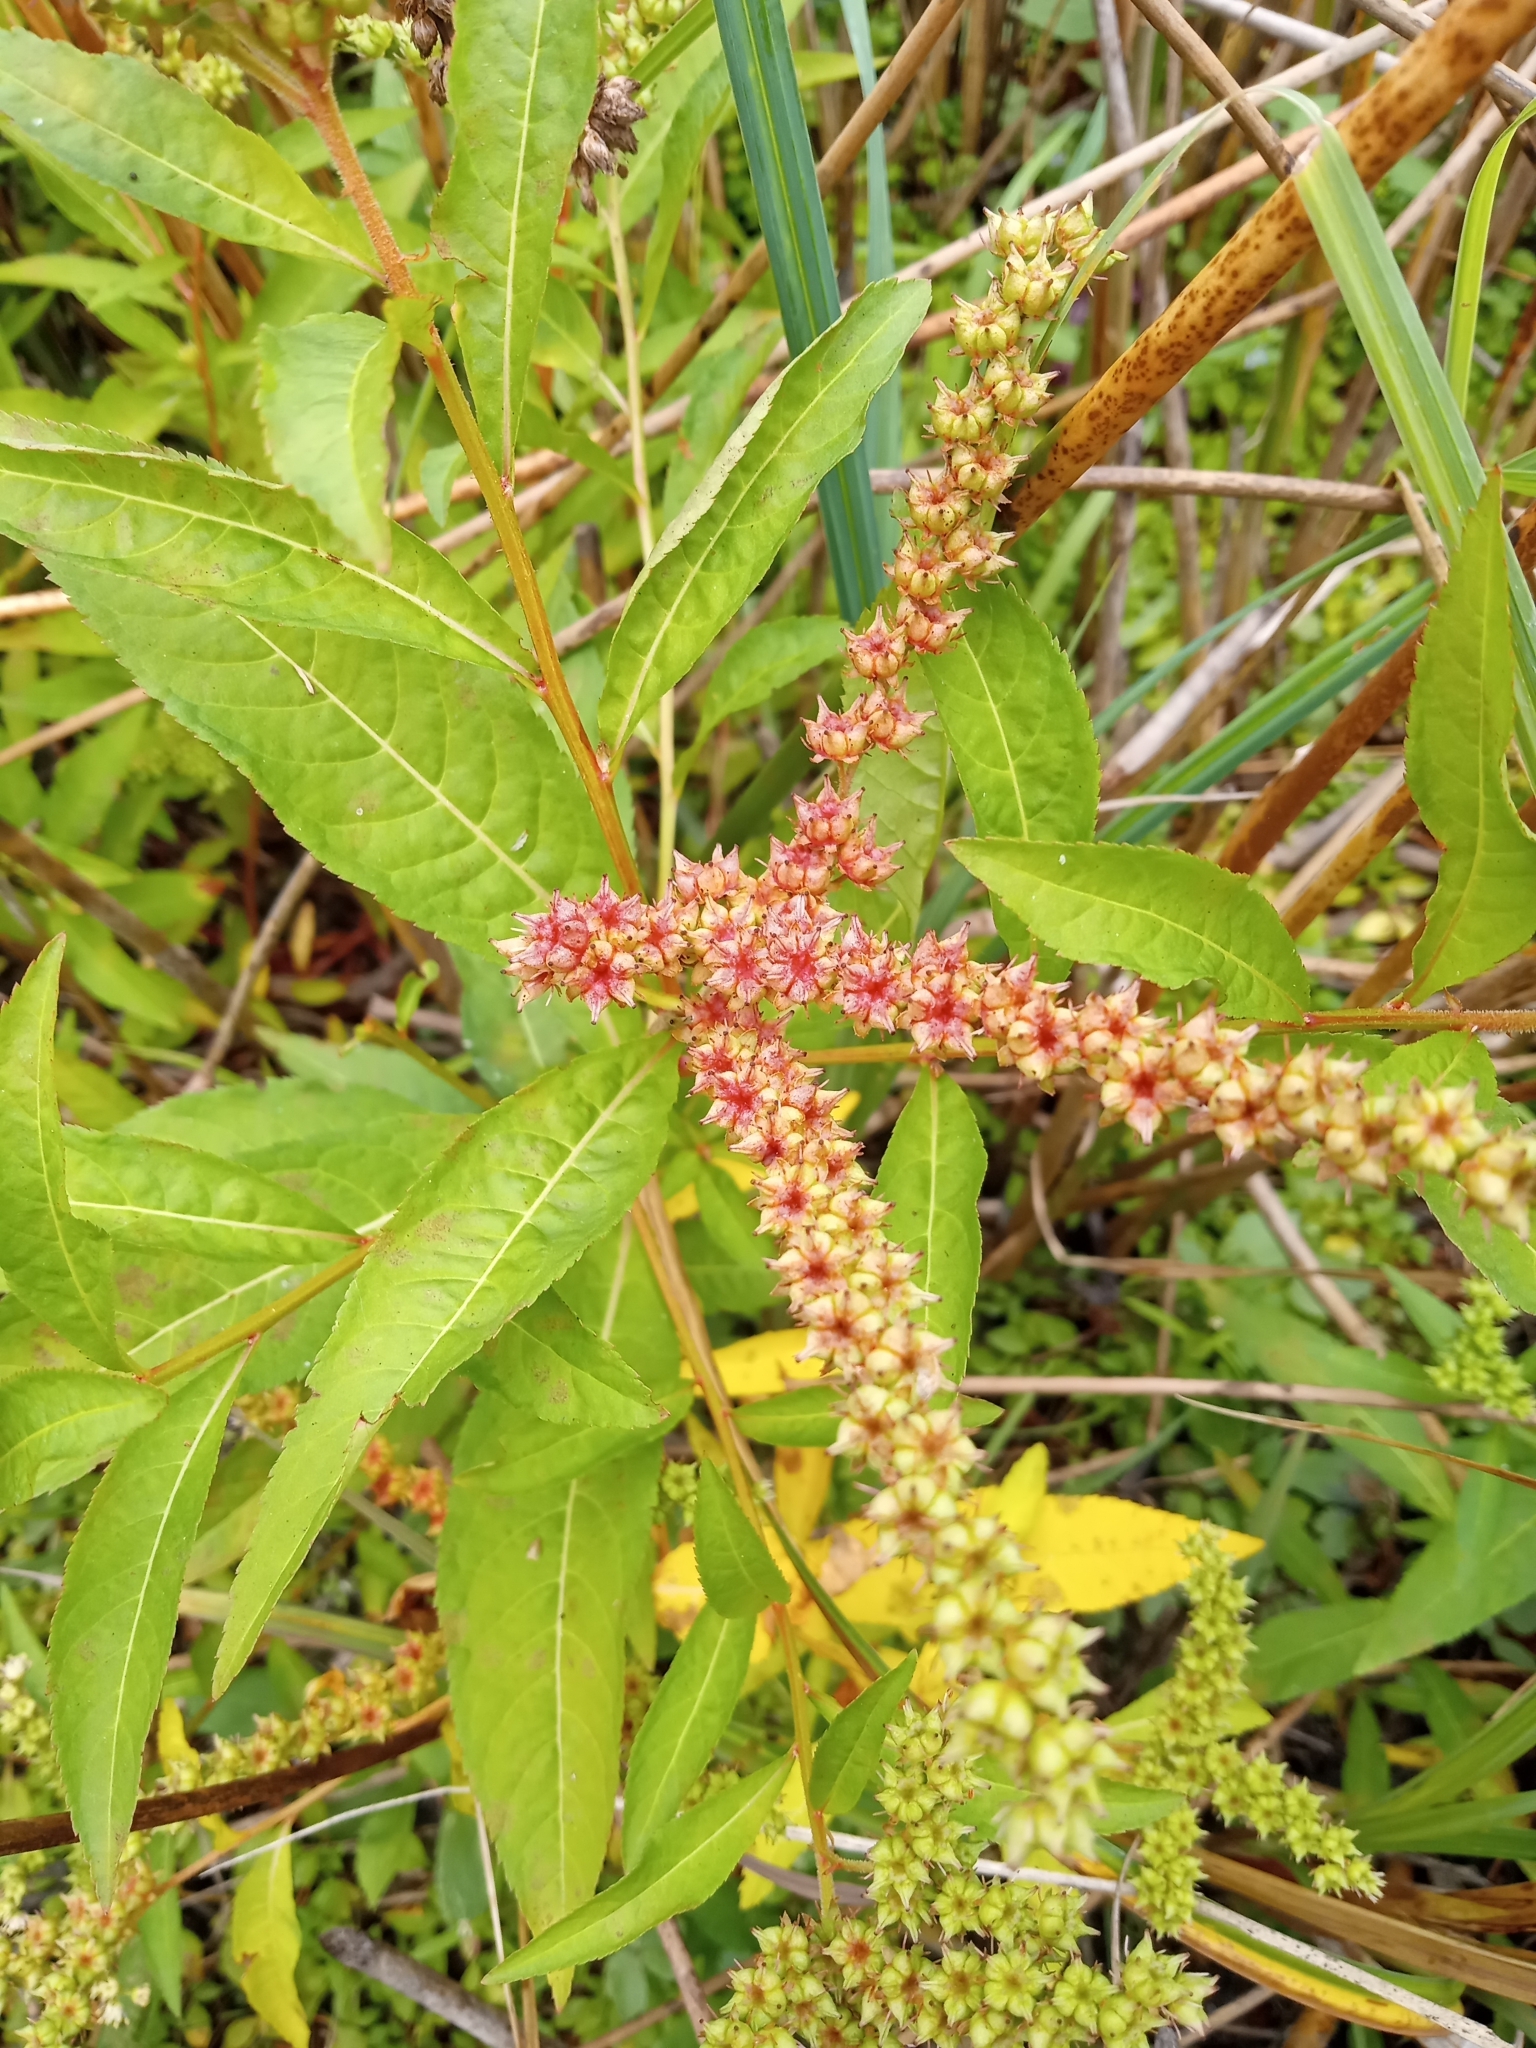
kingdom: Plantae
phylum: Tracheophyta
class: Magnoliopsida
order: Saxifragales
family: Penthoraceae
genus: Penthorum
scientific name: Penthorum sedoides
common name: Ditch stonecrop
